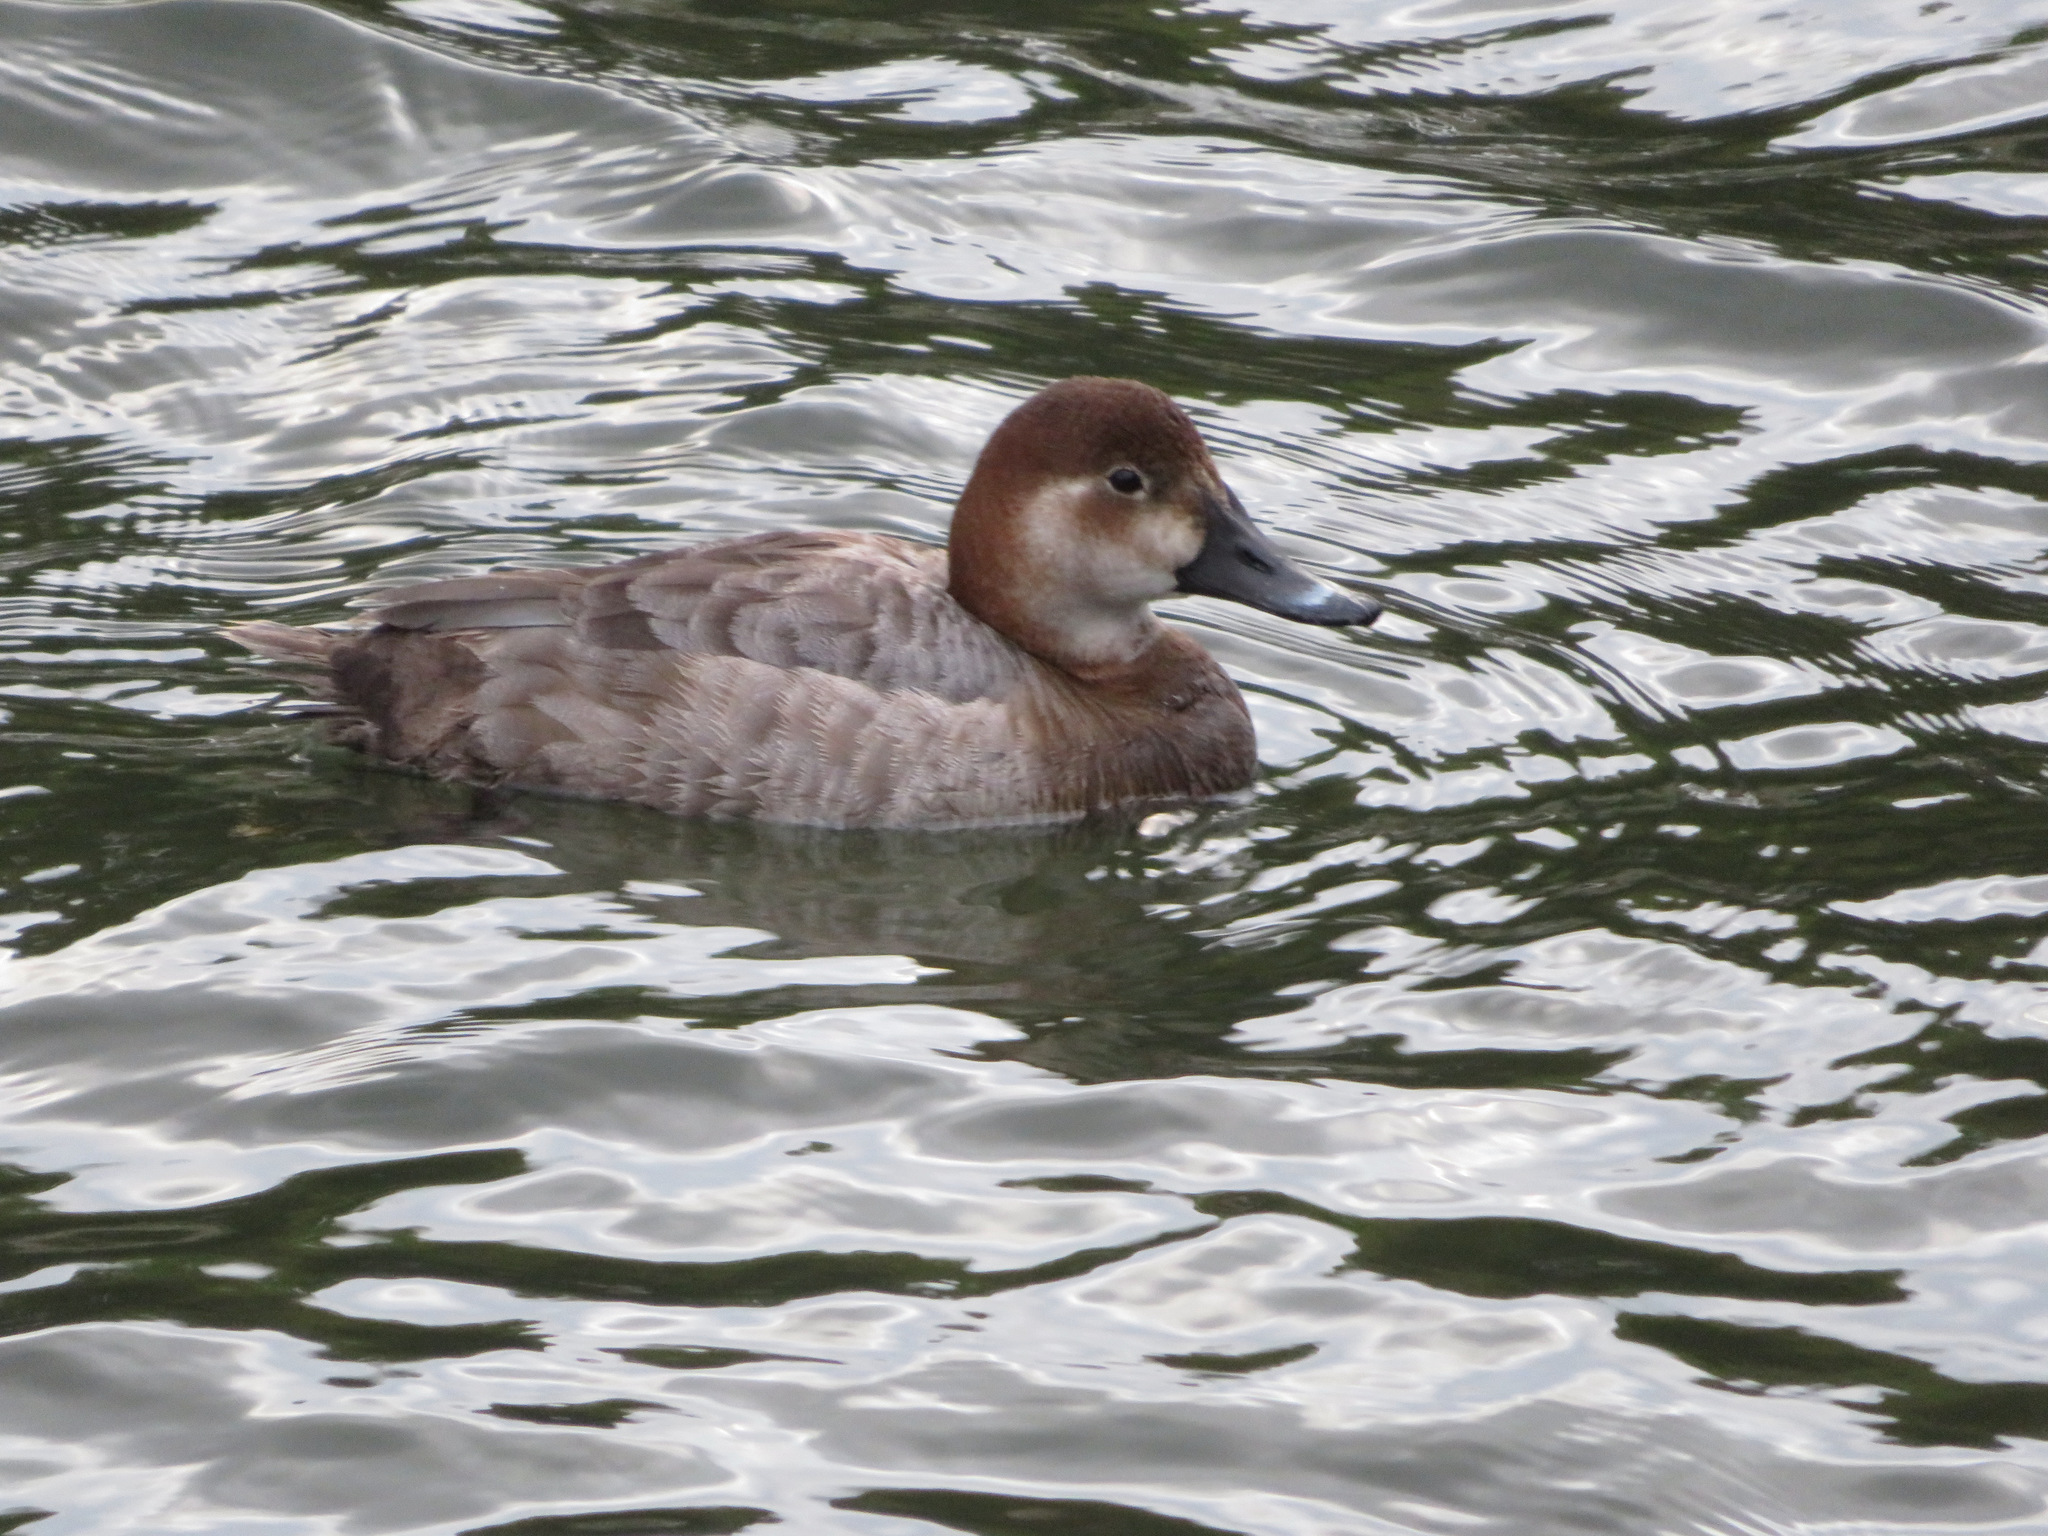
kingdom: Animalia
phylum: Chordata
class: Aves
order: Anseriformes
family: Anatidae
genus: Aythya
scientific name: Aythya ferina
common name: Common pochard
